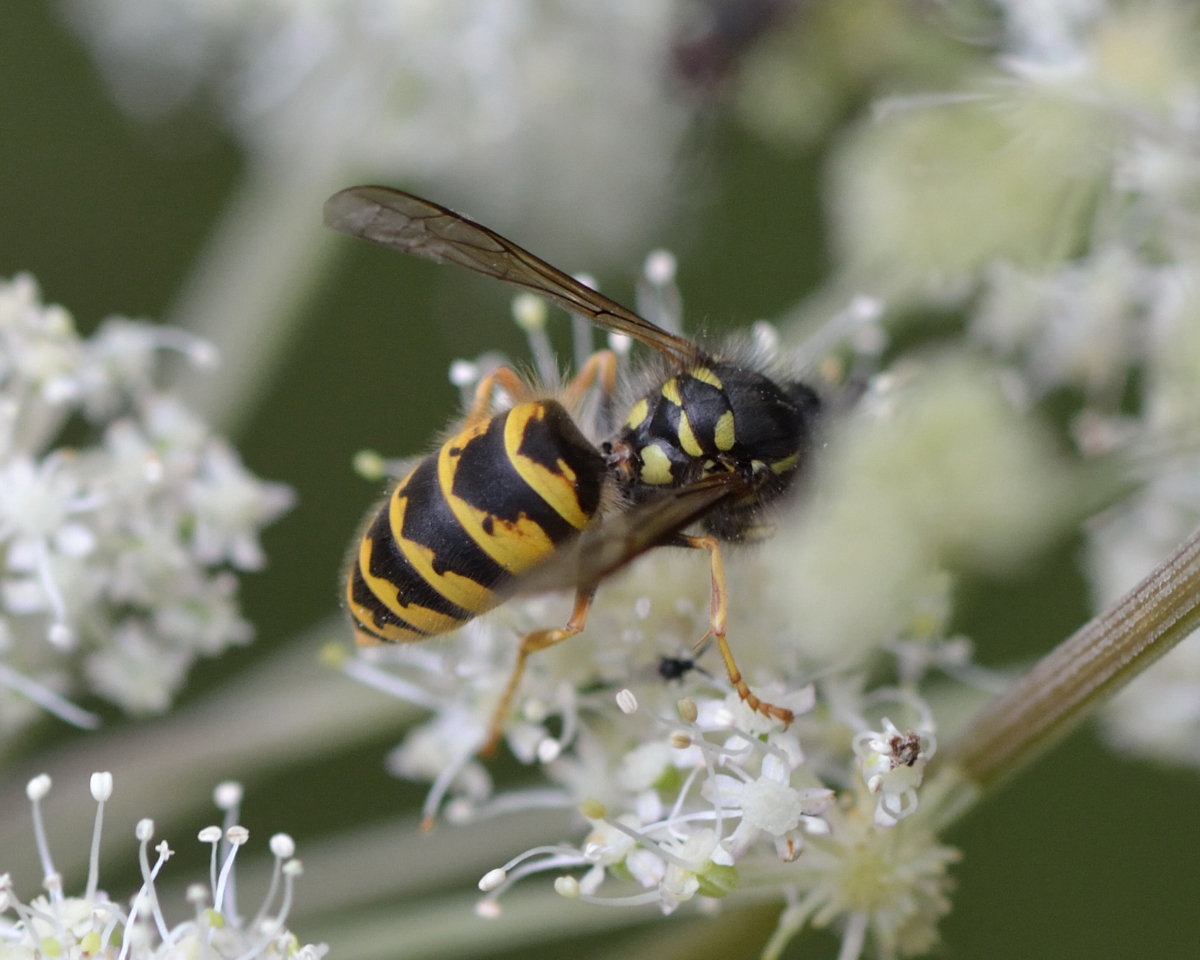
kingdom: Animalia
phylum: Arthropoda
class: Insecta
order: Hymenoptera
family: Vespidae
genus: Vespula
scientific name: Vespula vulgaris
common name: Common wasp
